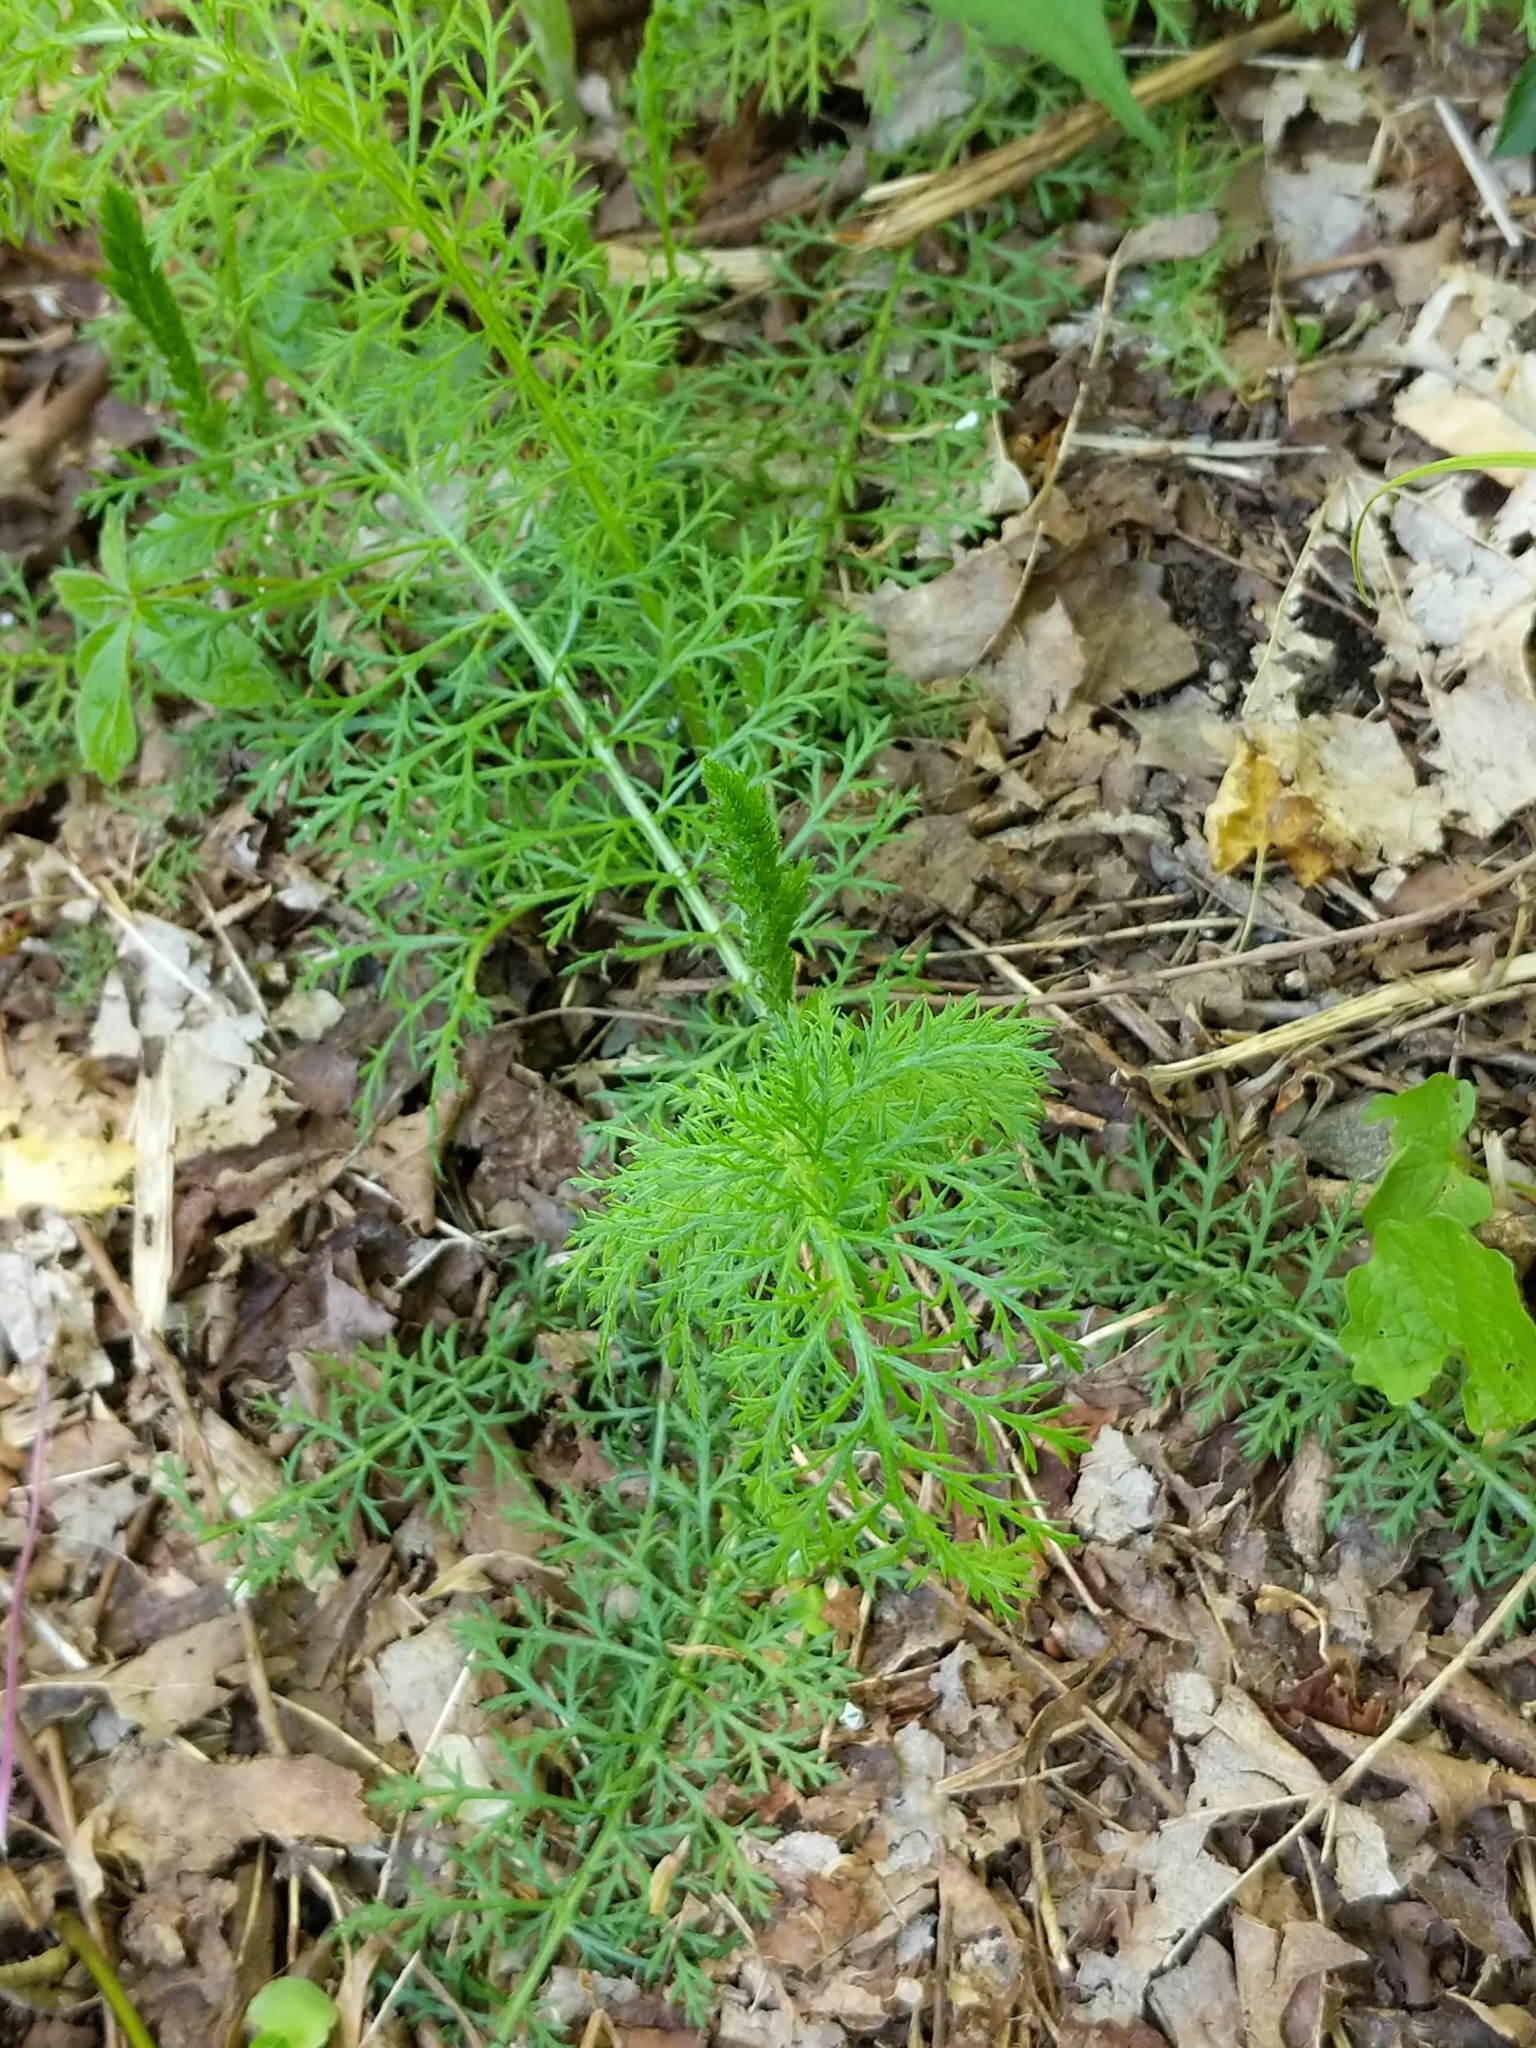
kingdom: Plantae
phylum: Tracheophyta
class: Magnoliopsida
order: Asterales
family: Asteraceae
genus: Achillea
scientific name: Achillea millefolium
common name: Yarrow
